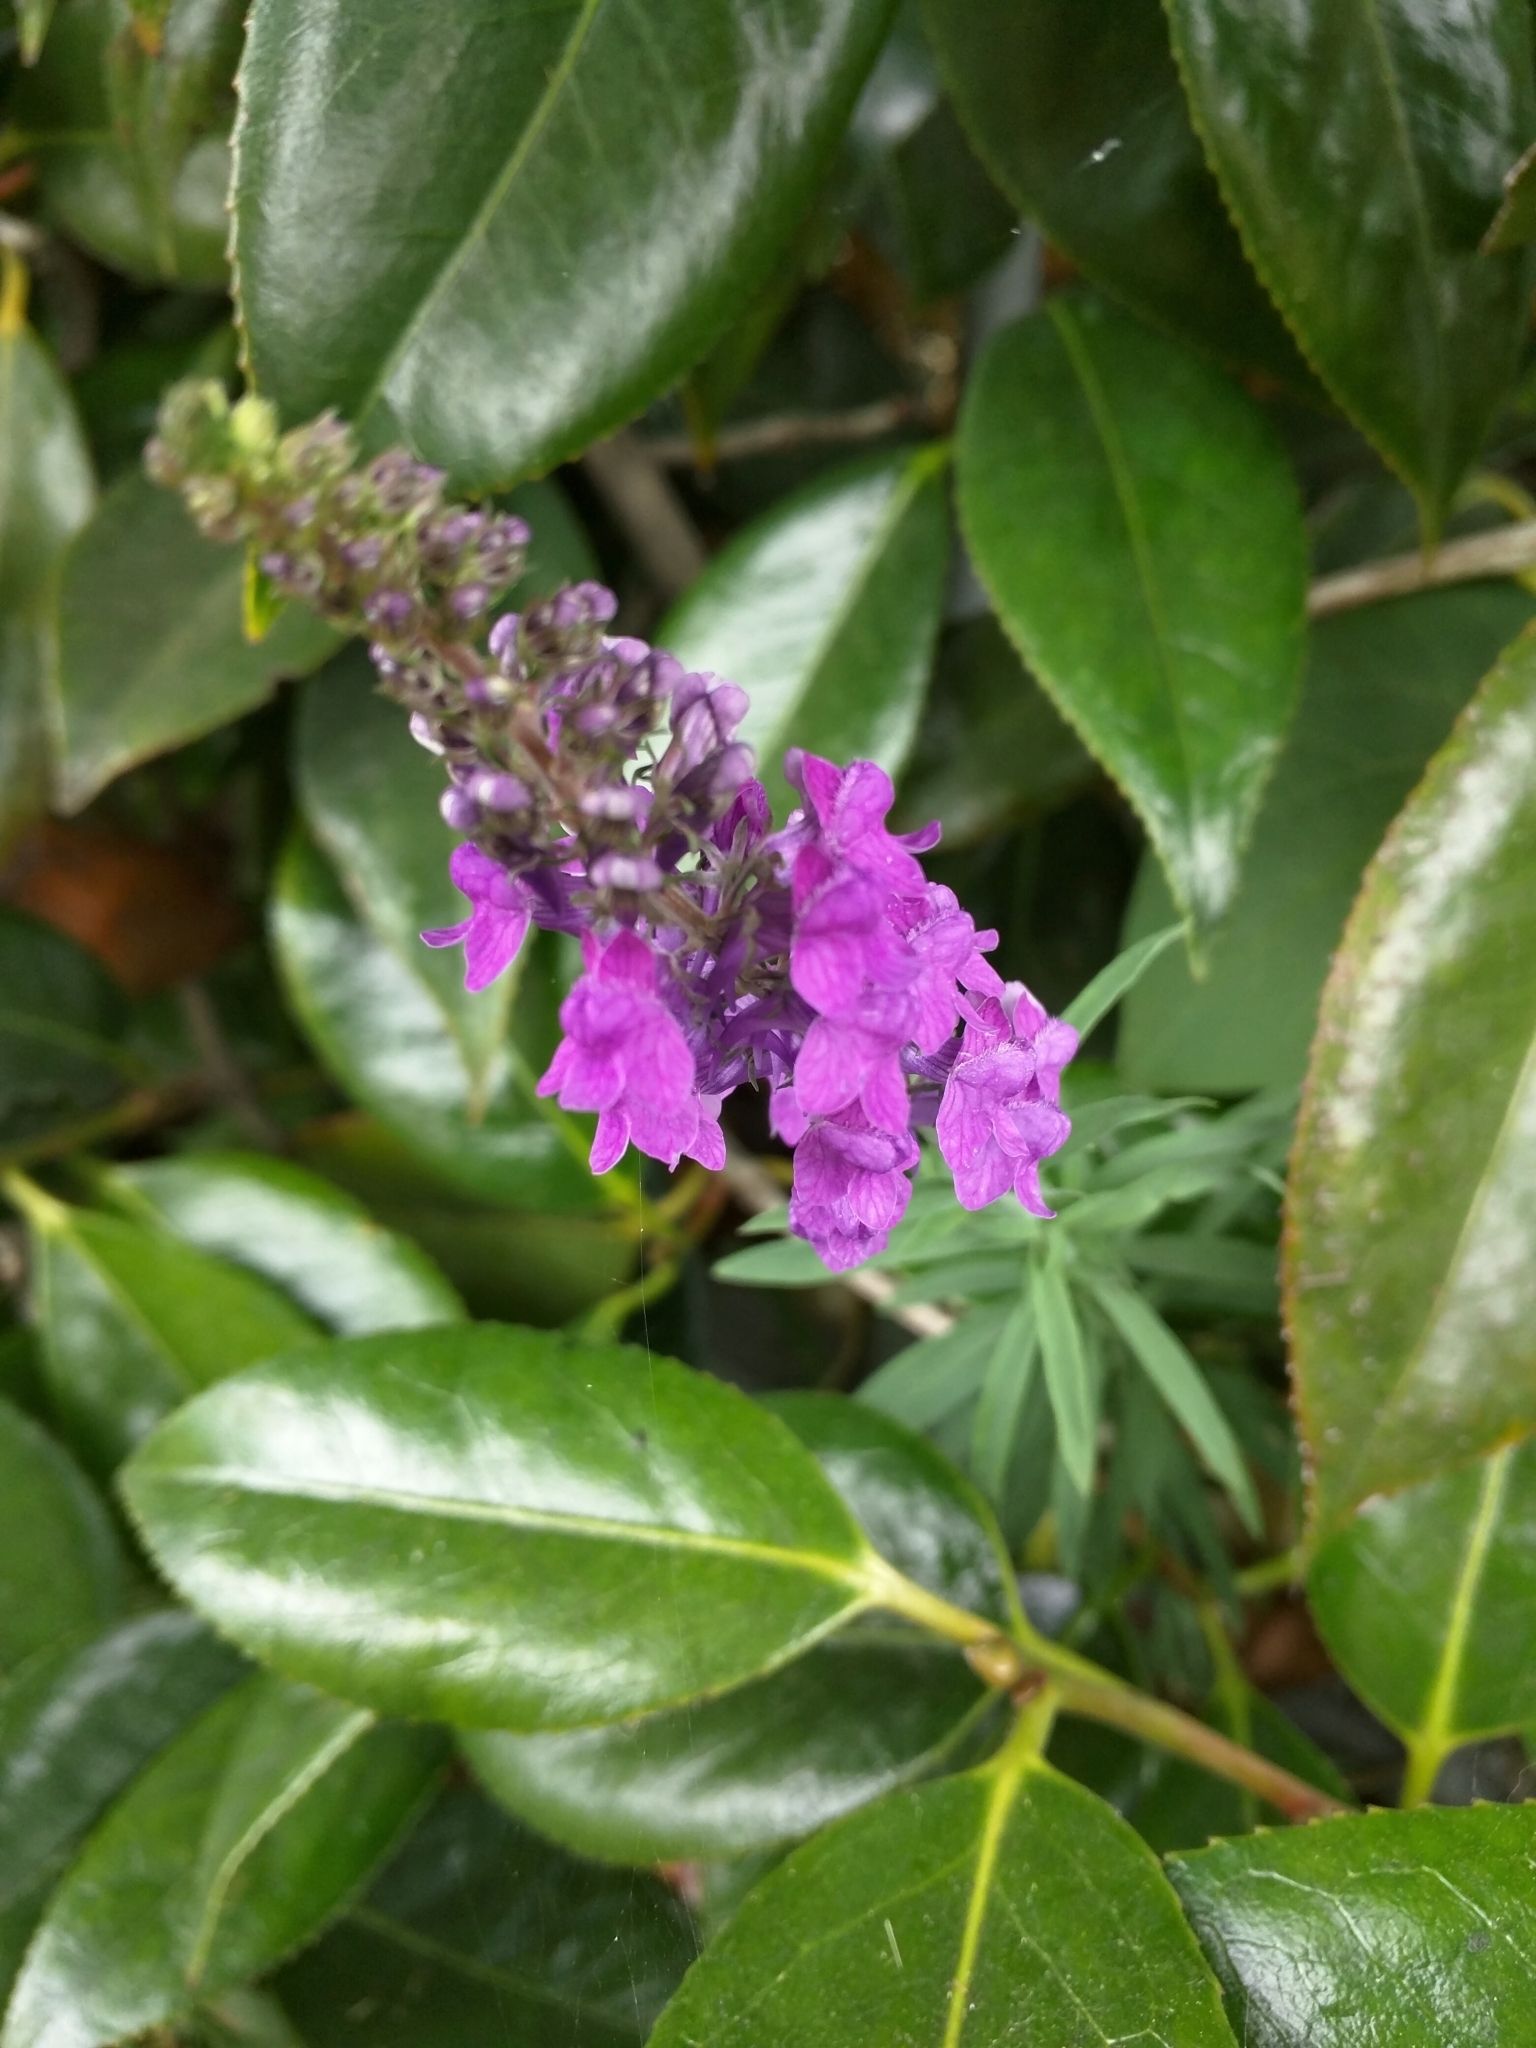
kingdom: Plantae
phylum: Tracheophyta
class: Magnoliopsida
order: Lamiales
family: Plantaginaceae
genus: Linaria
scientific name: Linaria purpurea
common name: Purple toadflax
